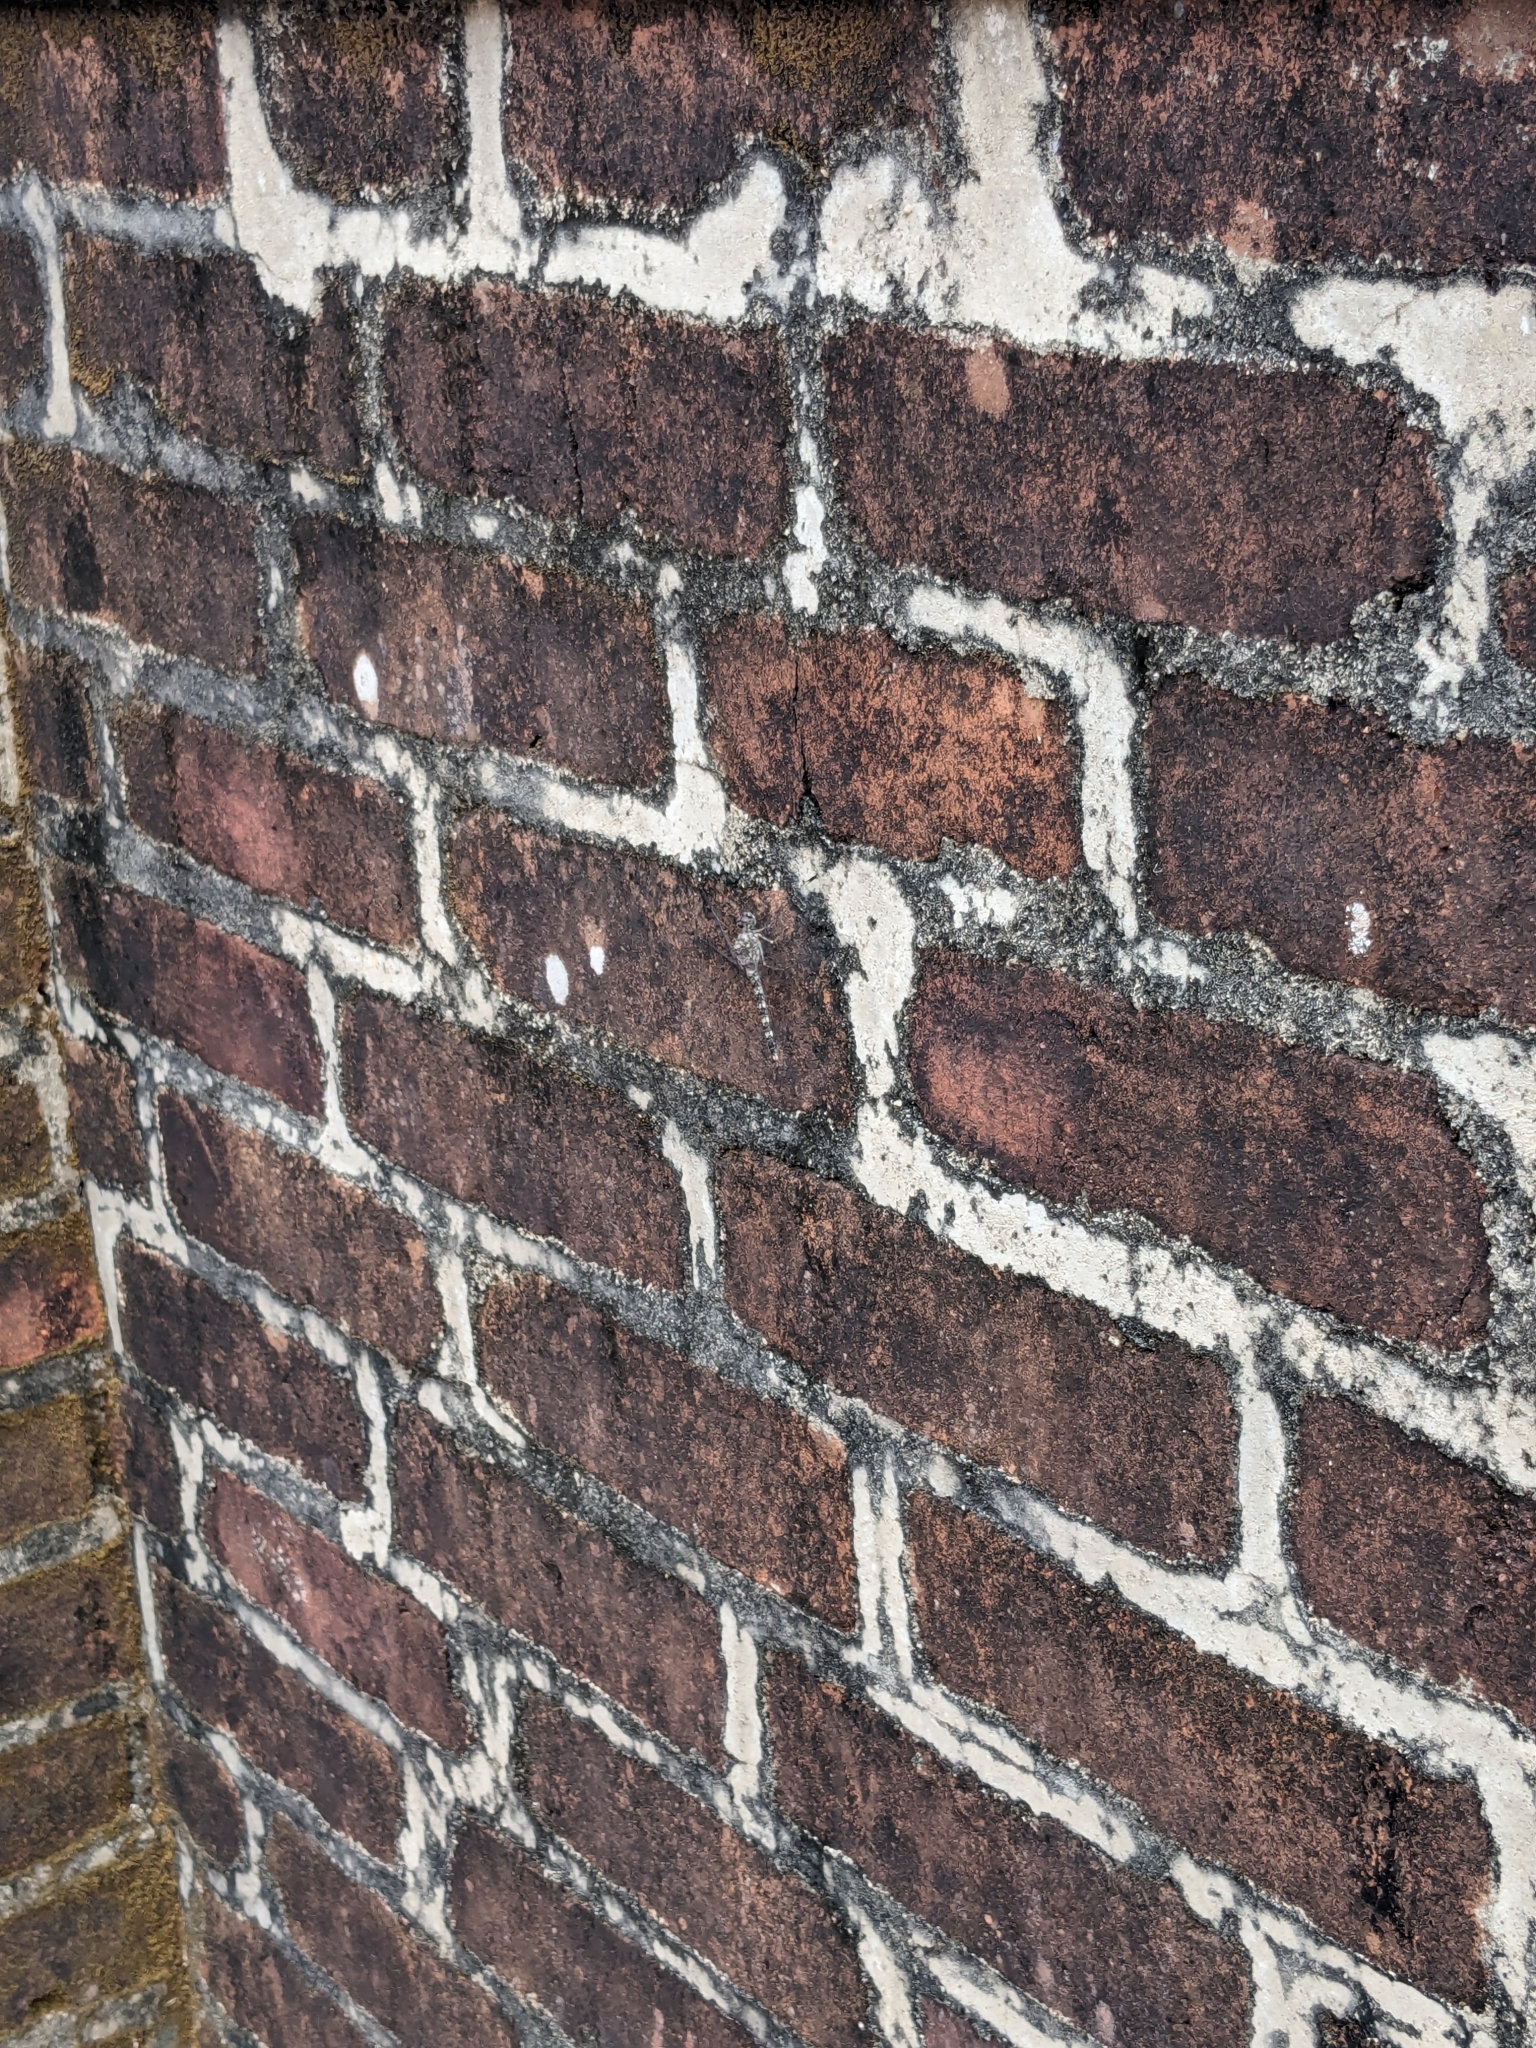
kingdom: Animalia
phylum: Arthropoda
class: Insecta
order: Odonata
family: Libellulidae
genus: Bradinopyga
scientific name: Bradinopyga geminata
